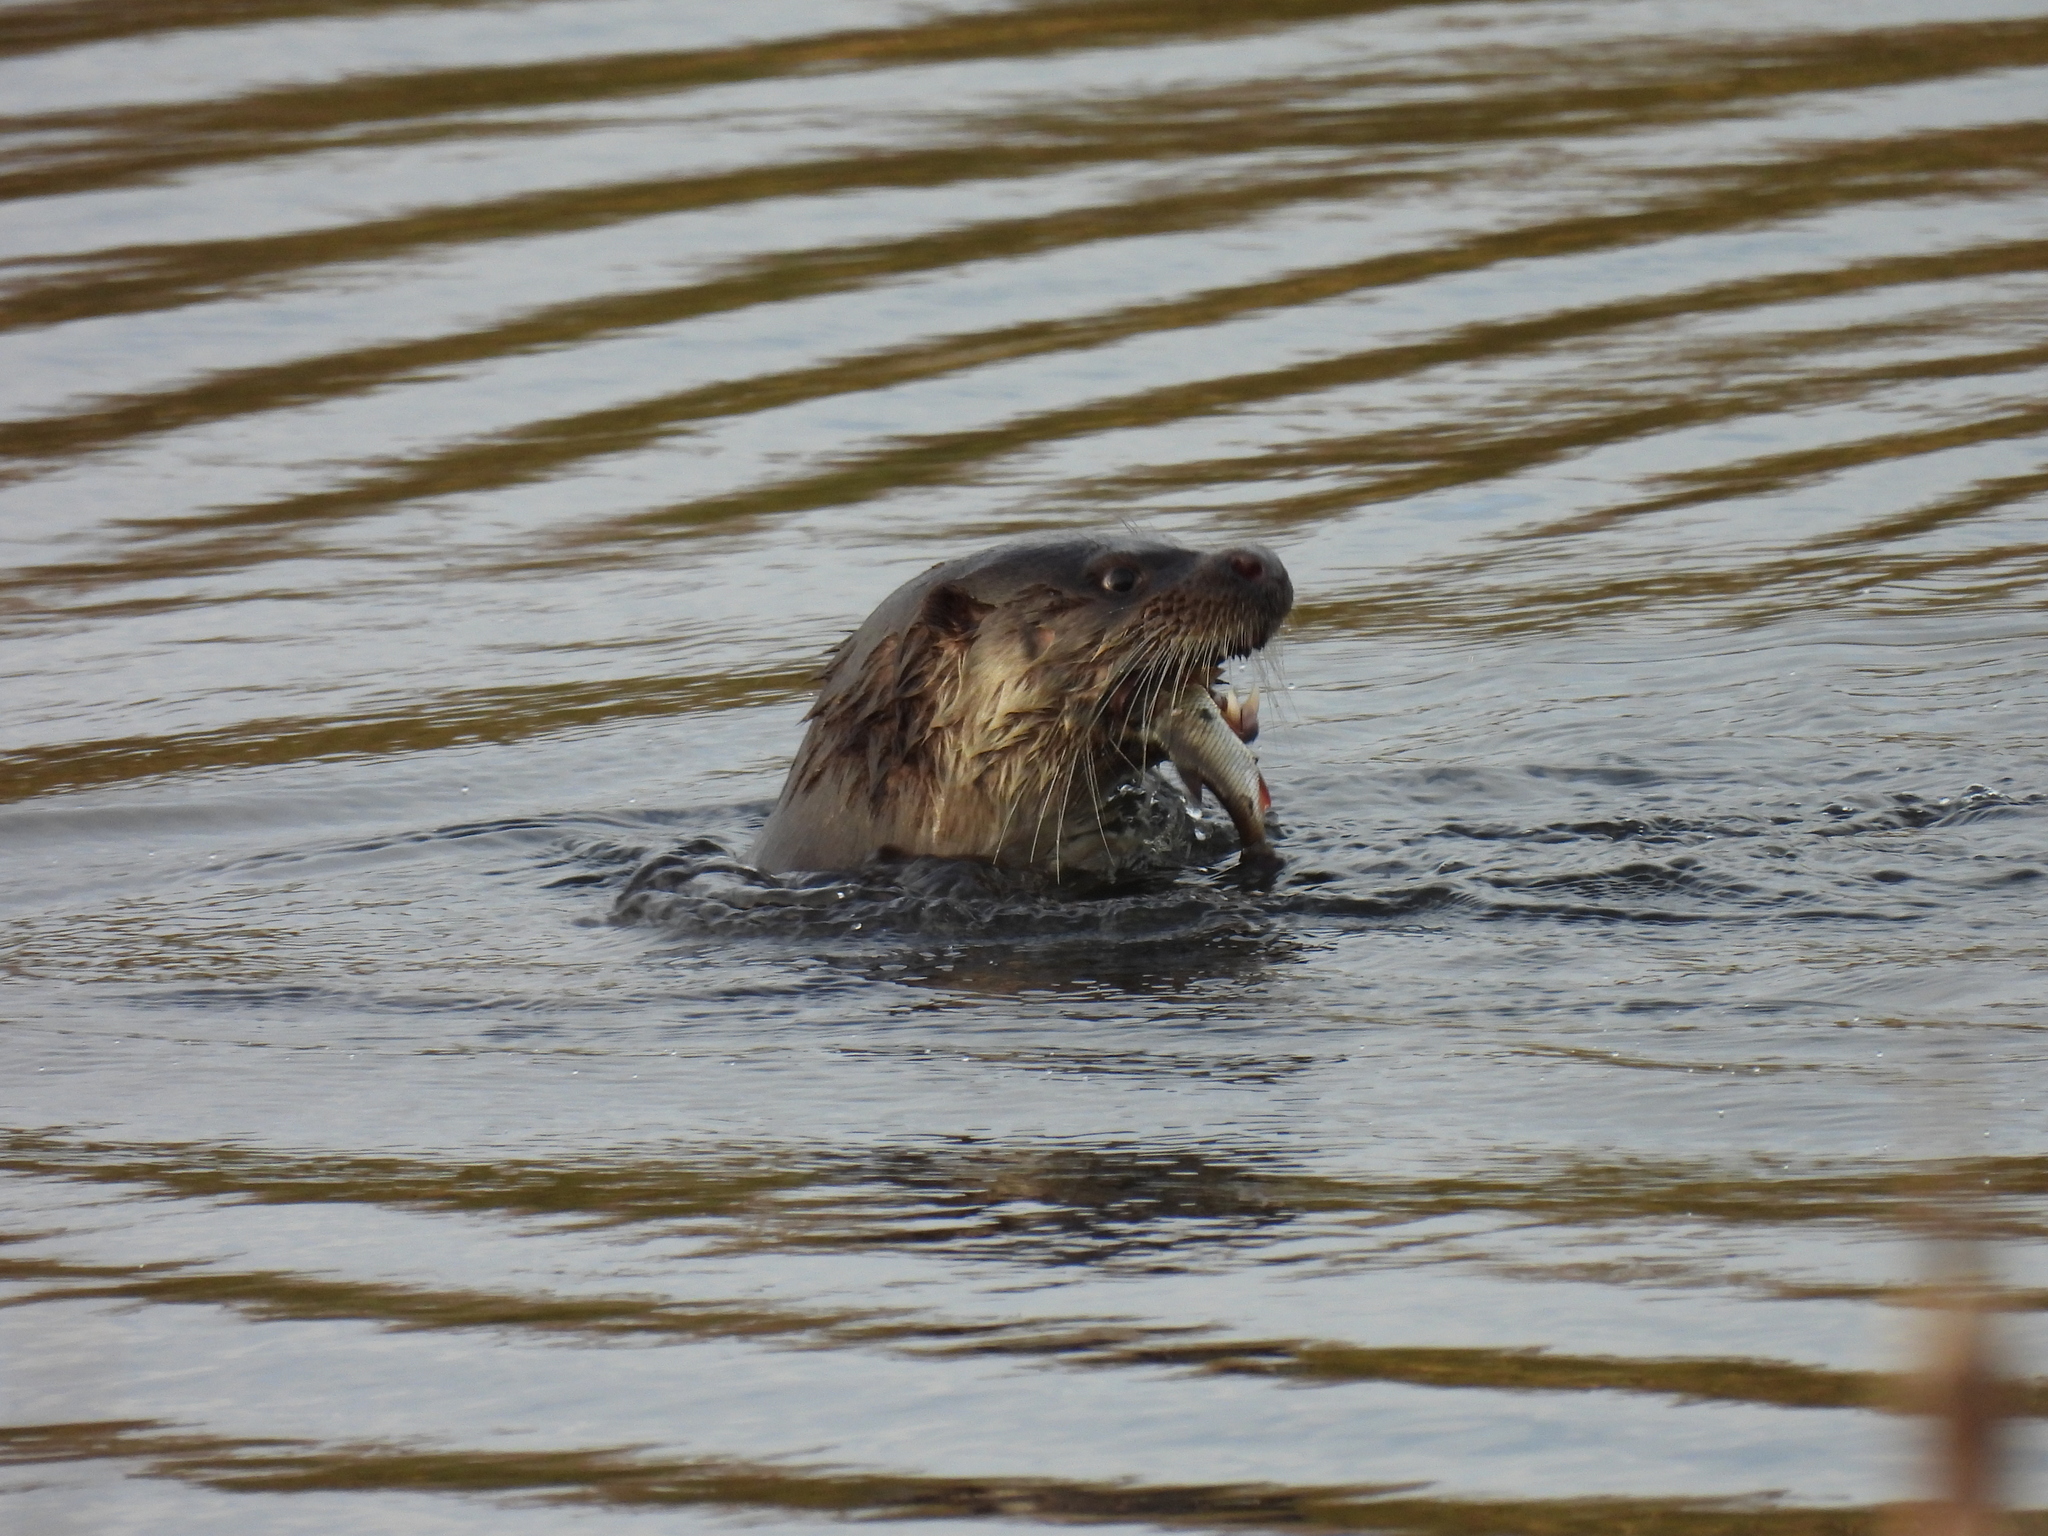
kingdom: Animalia
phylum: Chordata
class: Mammalia
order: Carnivora
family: Mustelidae
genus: Lutra
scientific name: Lutra lutra
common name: European otter
